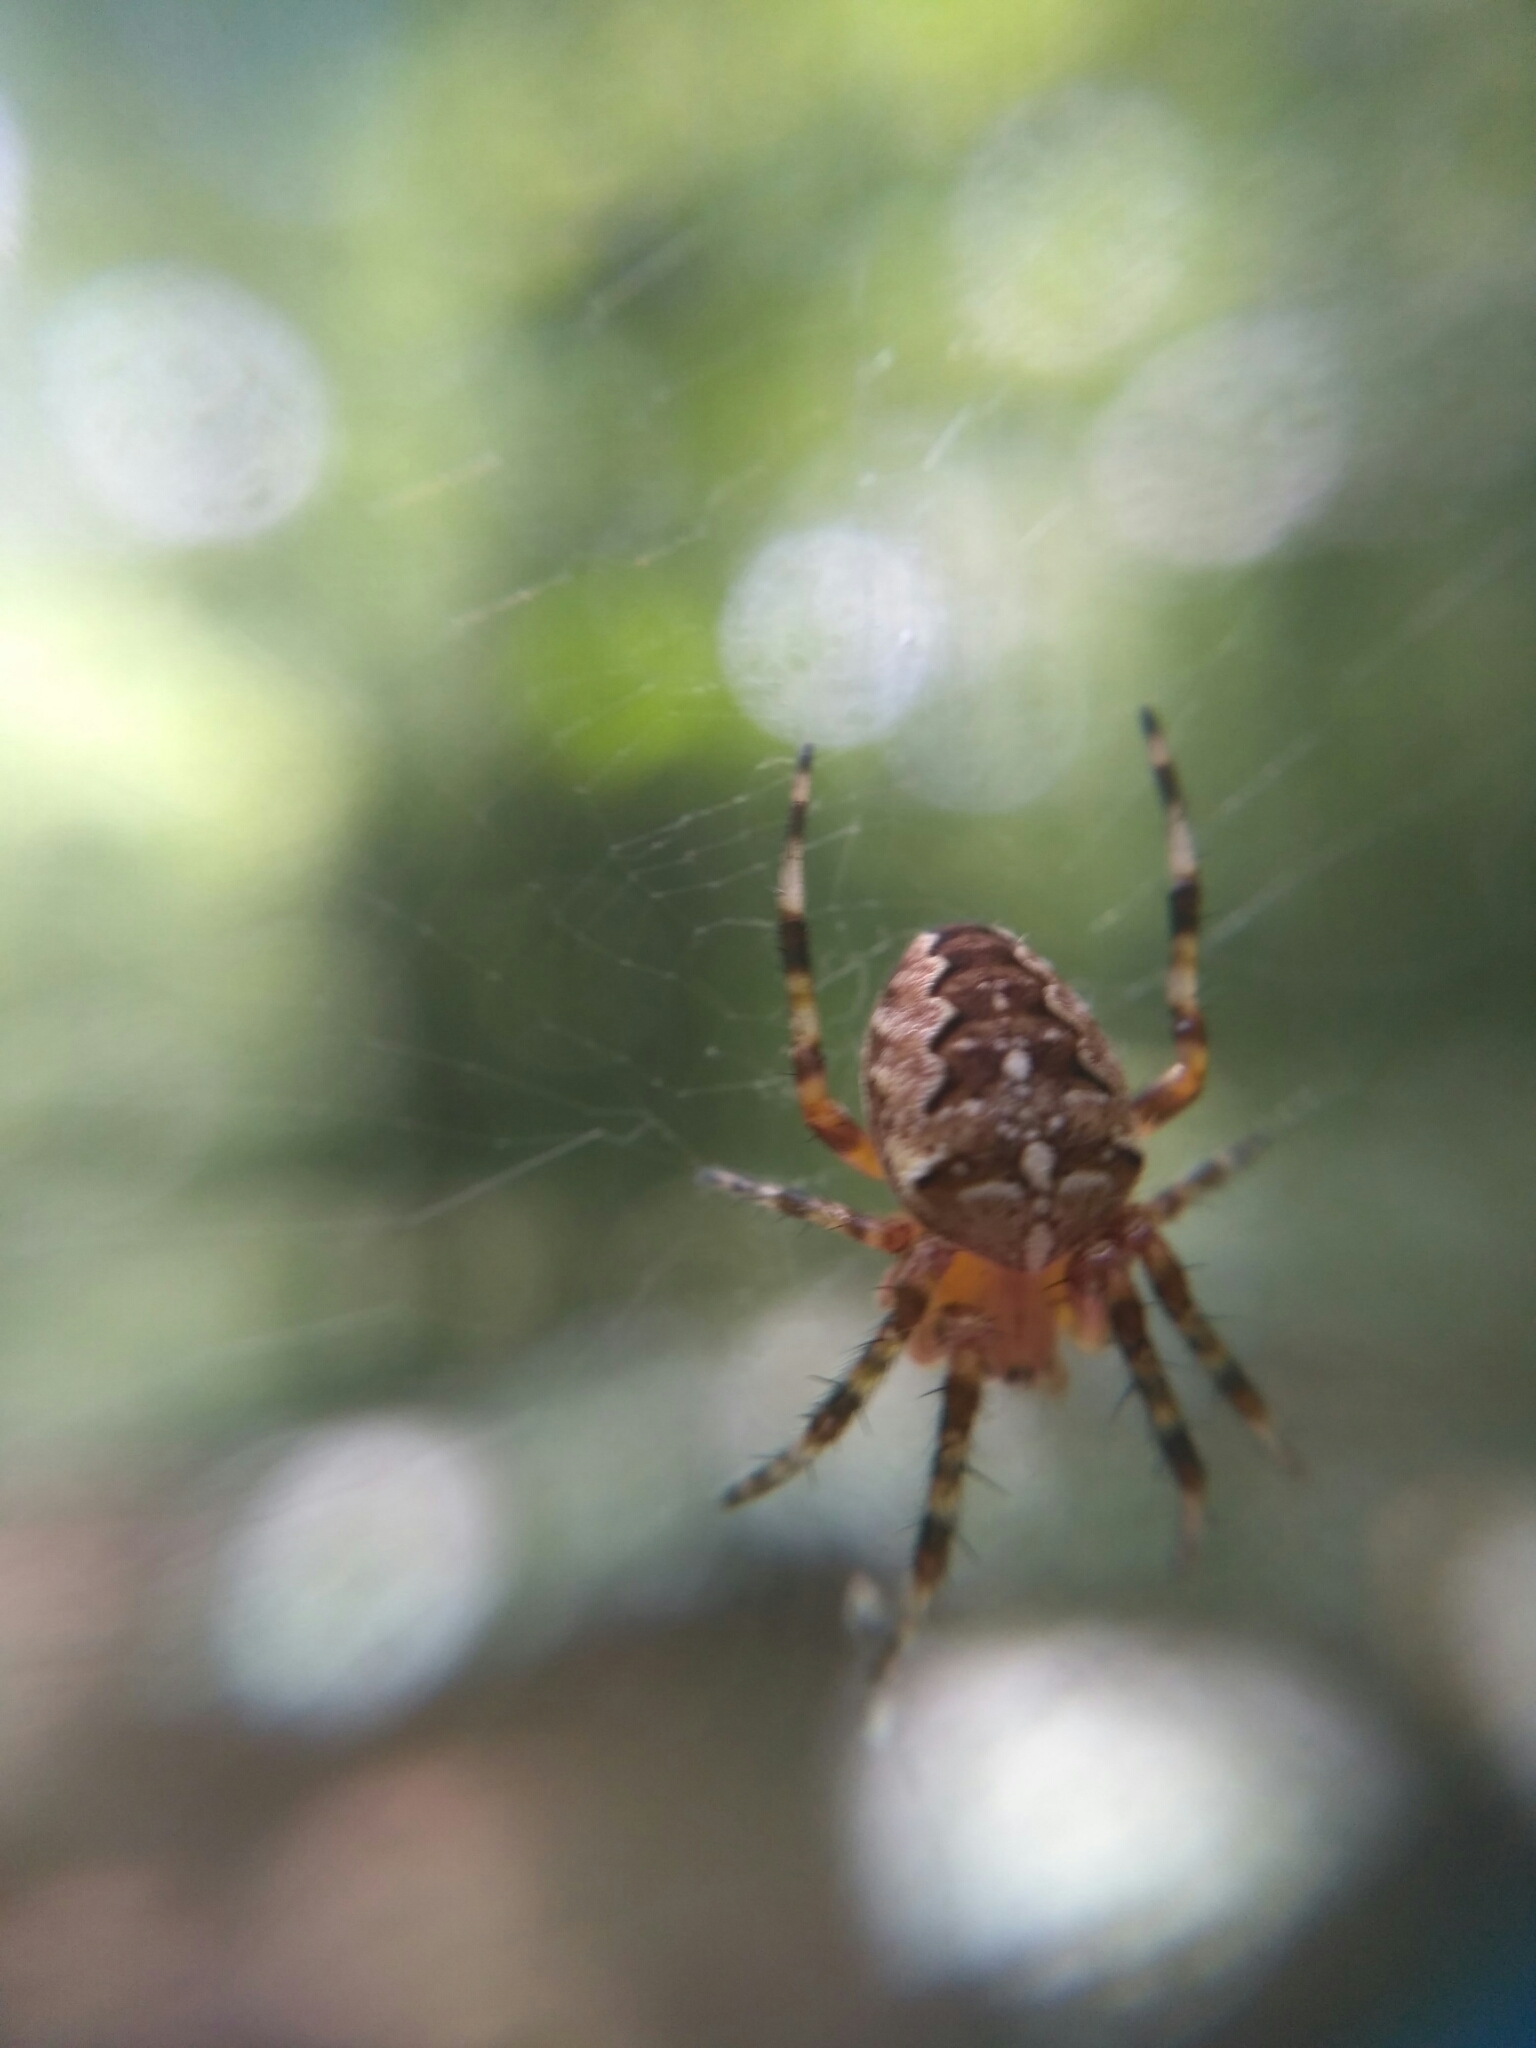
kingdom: Animalia
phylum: Arthropoda
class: Arachnida
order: Araneae
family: Araneidae
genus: Araneus
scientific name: Araneus diadematus
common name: Cross orbweaver
